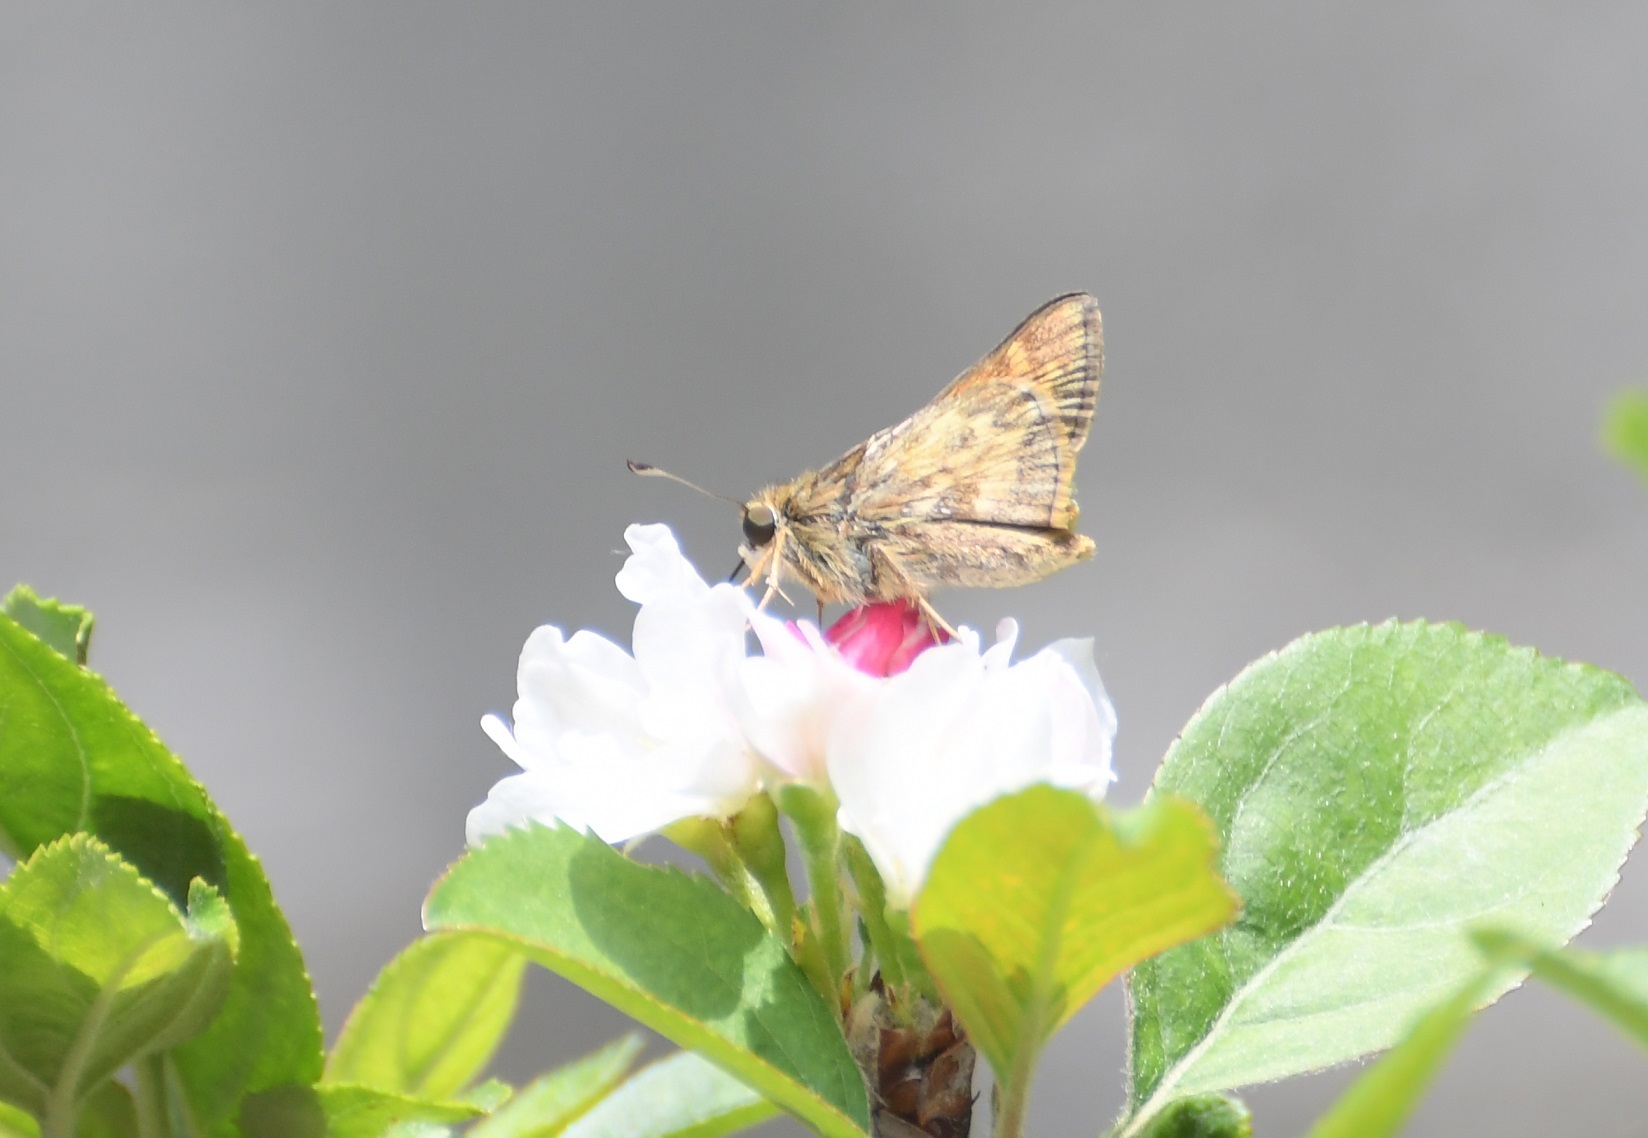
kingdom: Animalia
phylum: Arthropoda
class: Insecta
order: Lepidoptera
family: Hesperiidae
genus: Atalopedes
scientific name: Atalopedes
